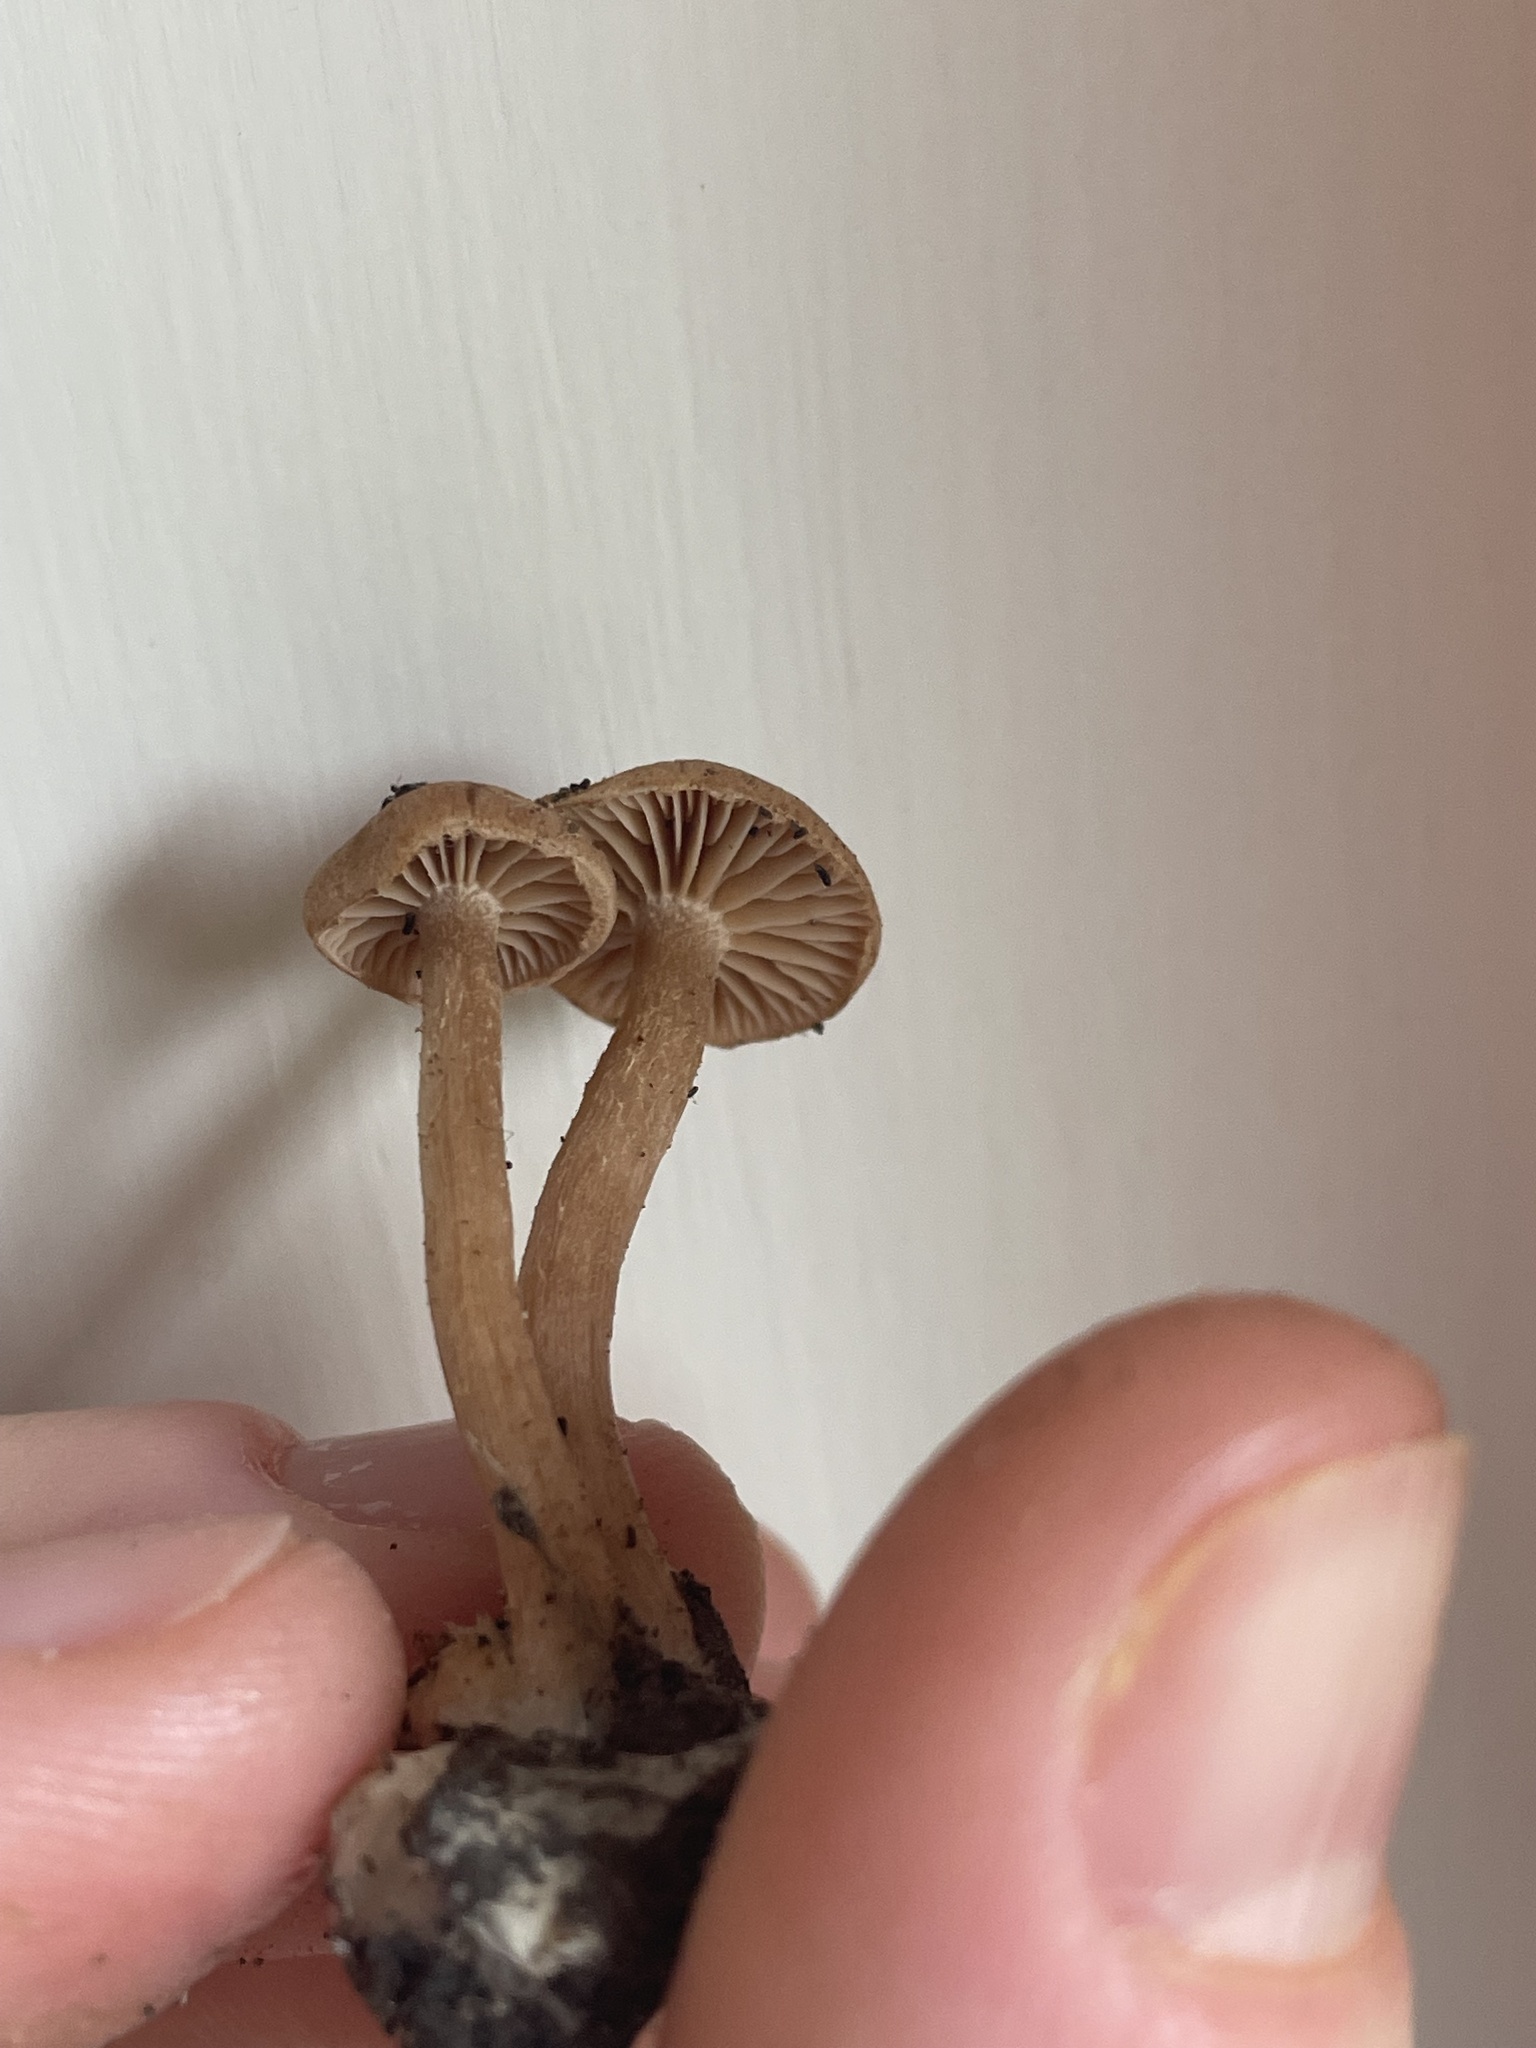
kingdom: Fungi
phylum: Basidiomycota
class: Agaricomycetes
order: Agaricales
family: Tubariaceae
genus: Tubaria
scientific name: Tubaria furfuracea
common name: Scurfy twiglet
